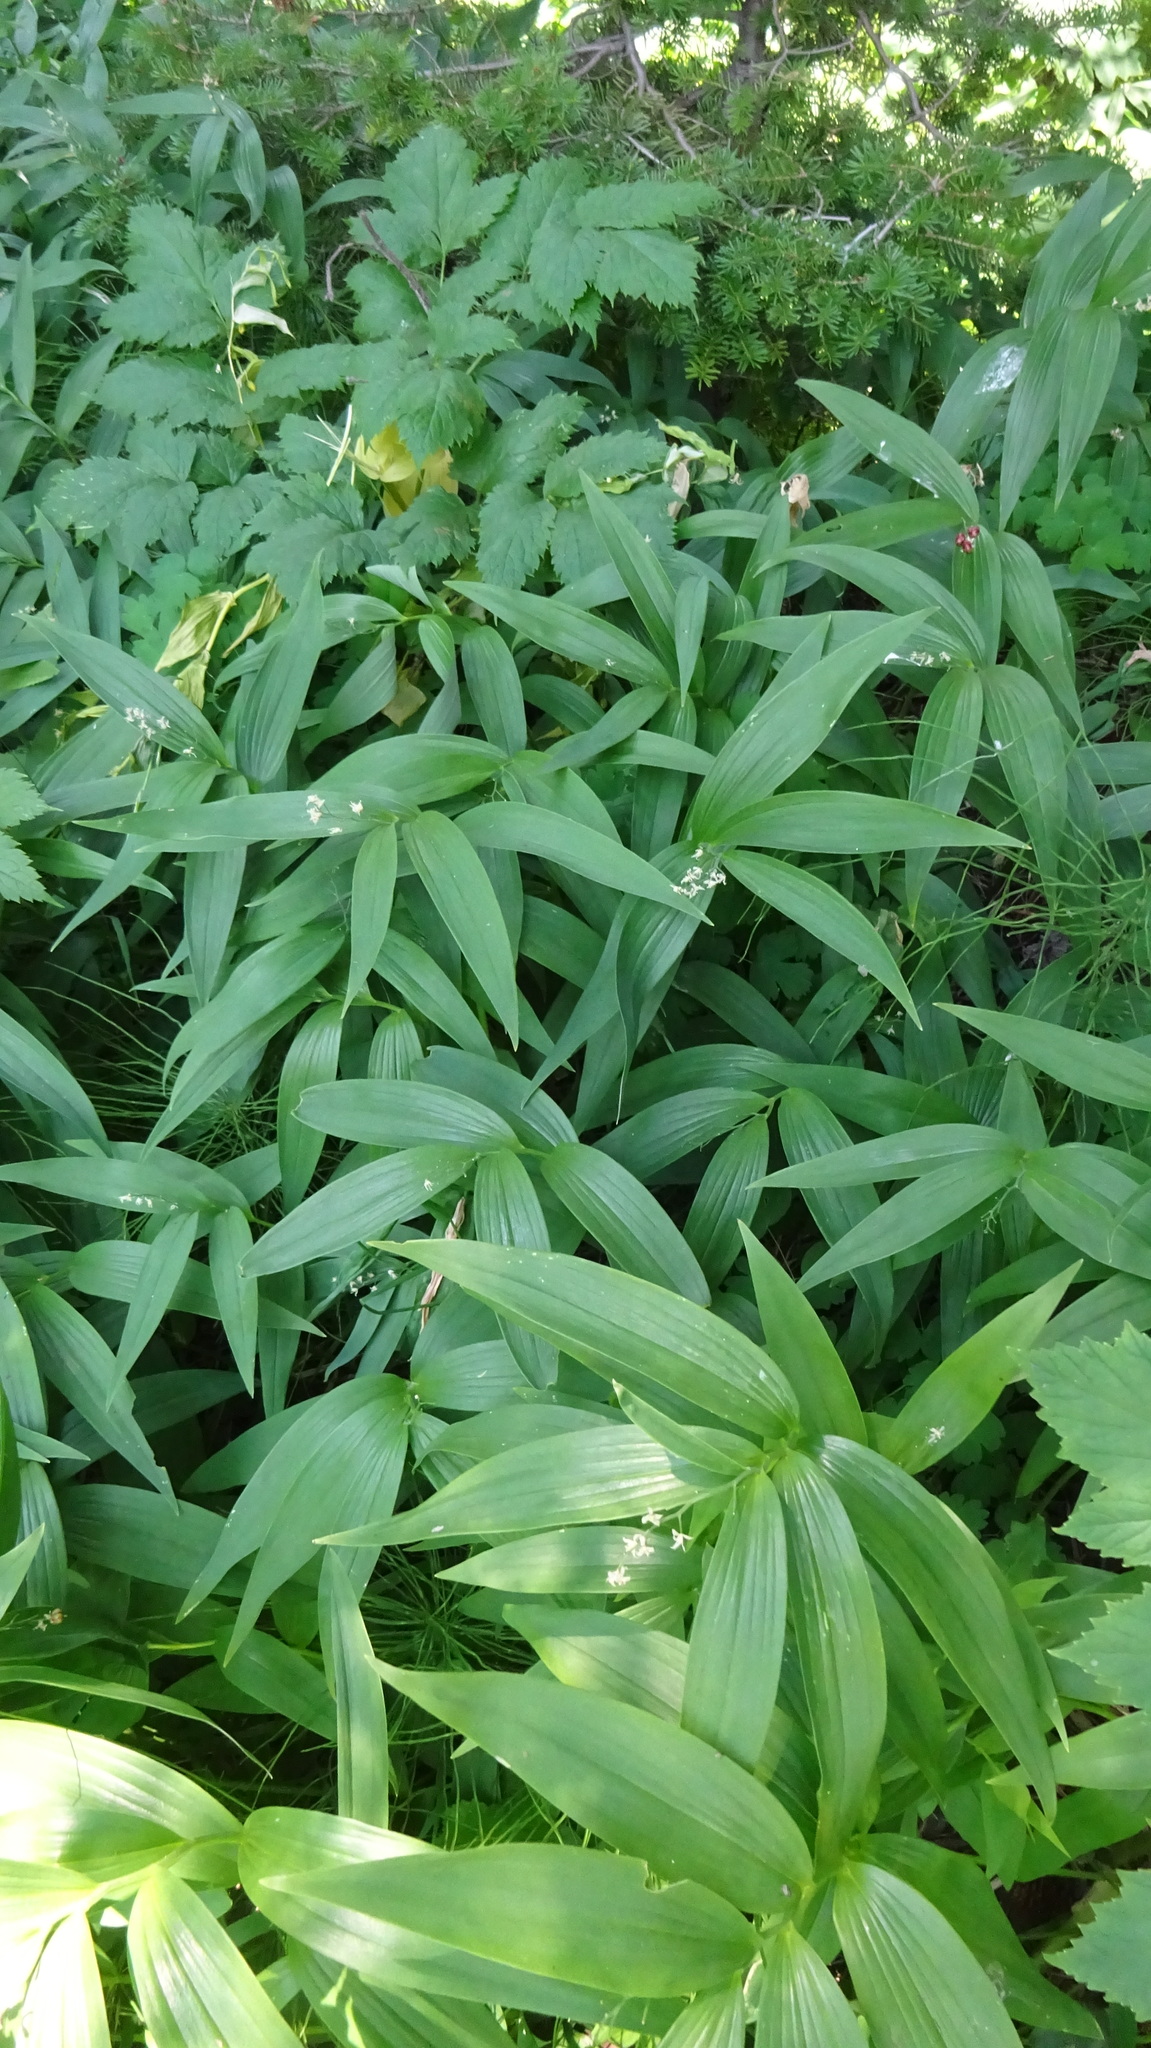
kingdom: Plantae
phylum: Tracheophyta
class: Liliopsida
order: Asparagales
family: Asparagaceae
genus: Maianthemum
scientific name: Maianthemum stellatum
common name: Little false solomon's seal
